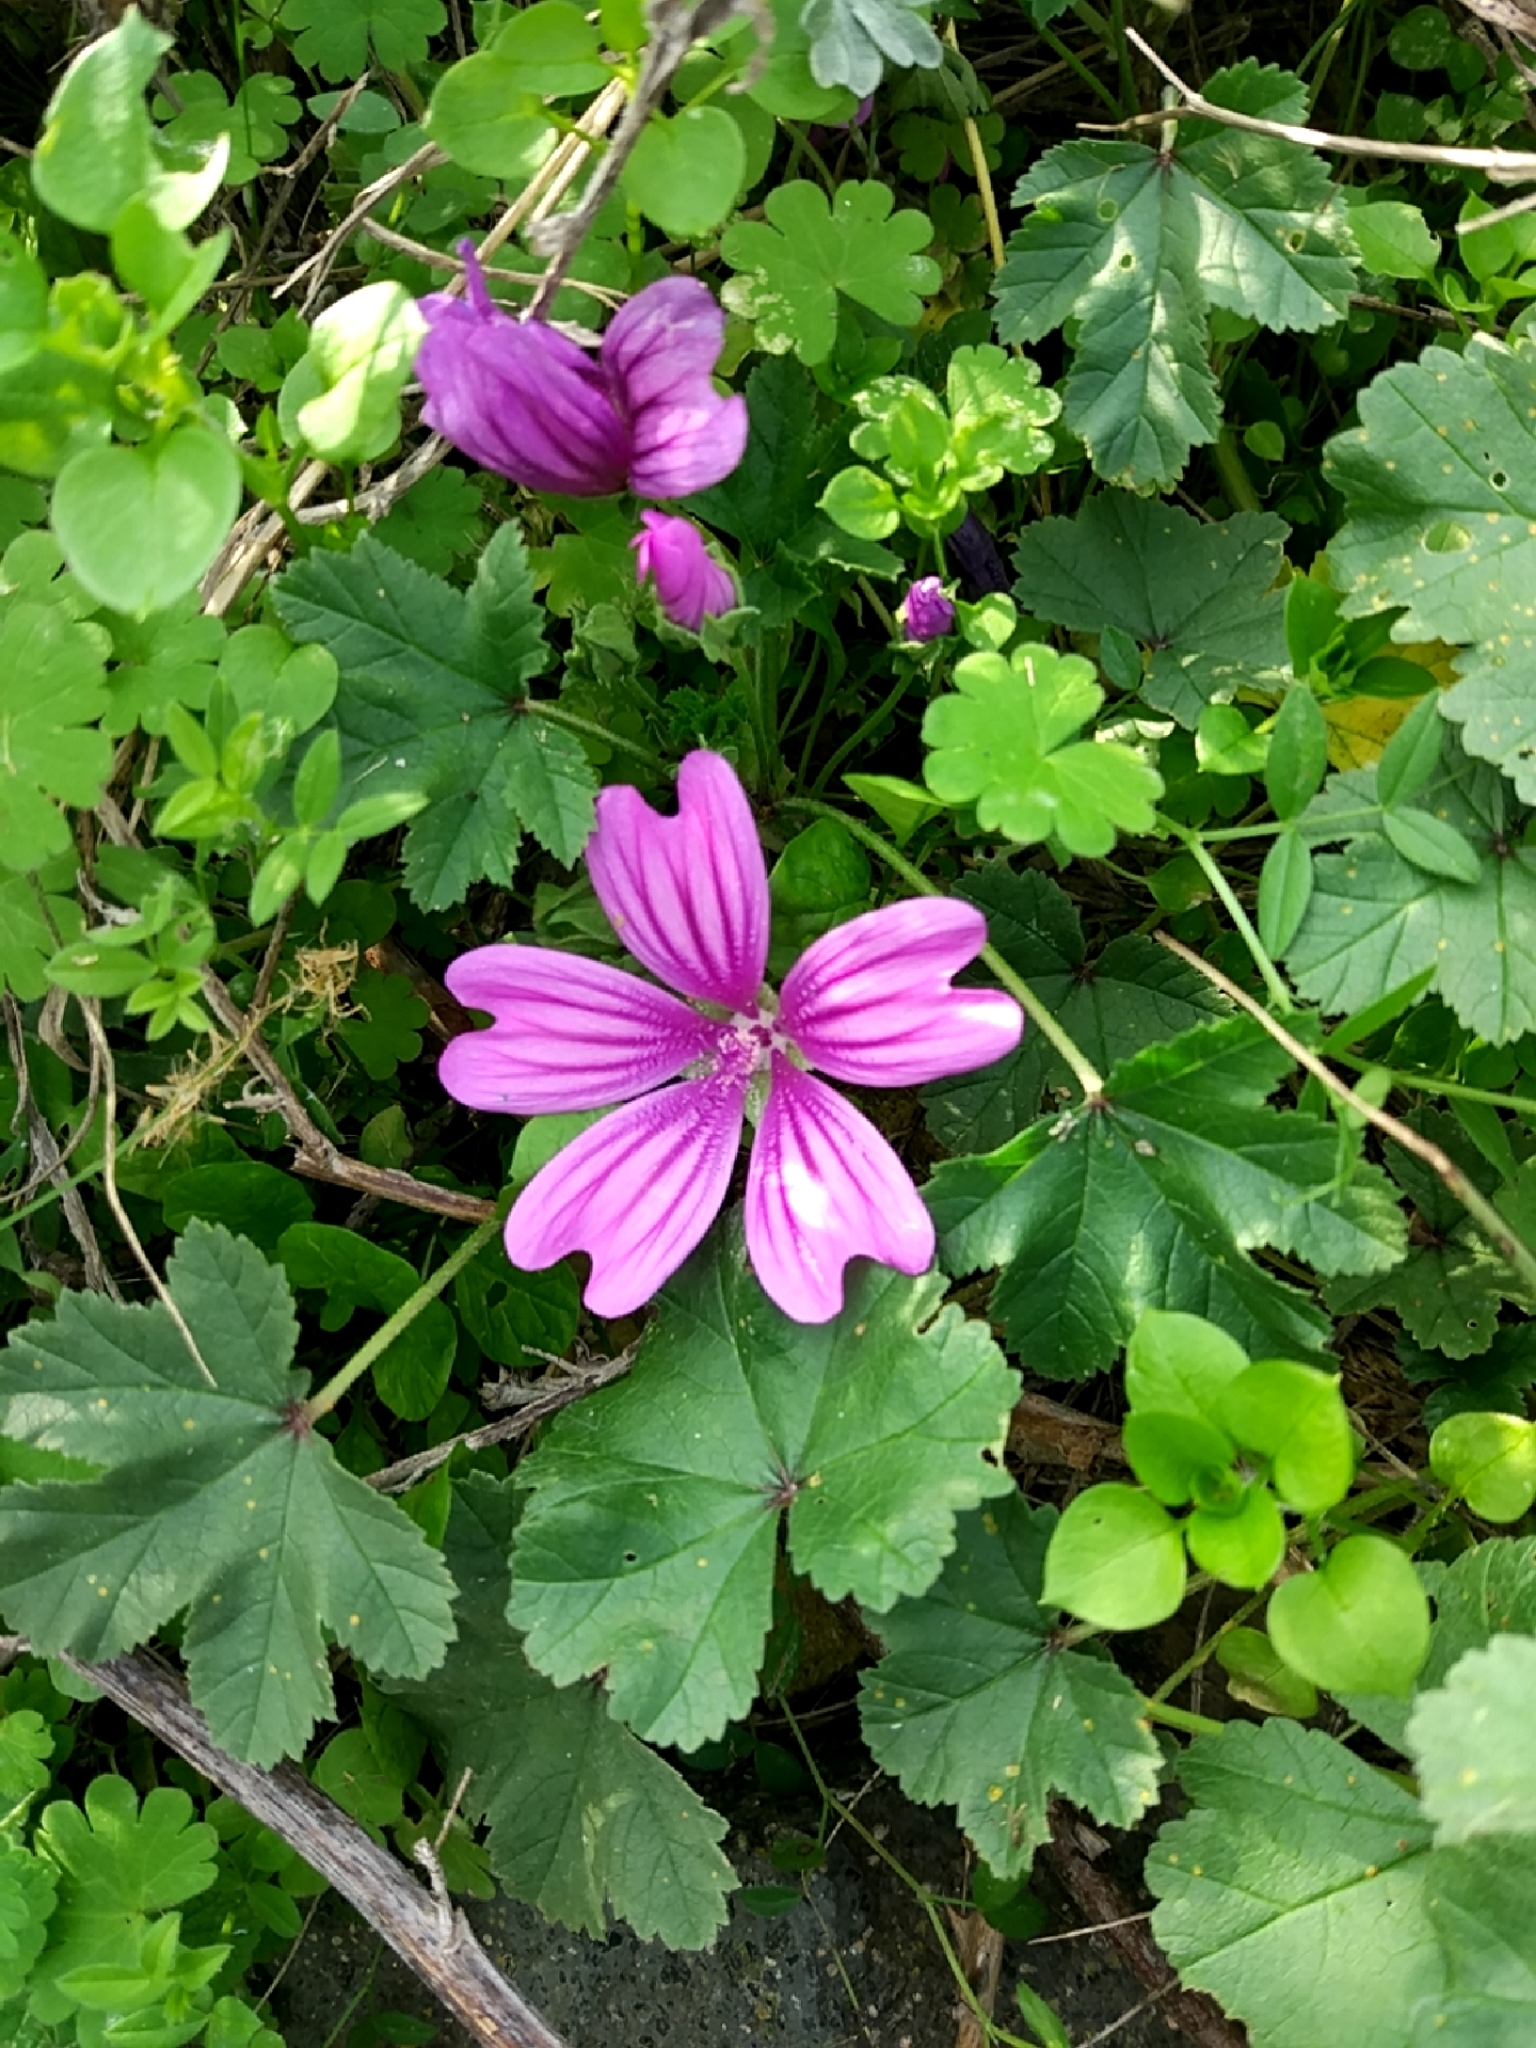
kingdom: Plantae
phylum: Tracheophyta
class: Magnoliopsida
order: Malvales
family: Malvaceae
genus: Malva
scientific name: Malva sylvestris
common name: Common mallow
